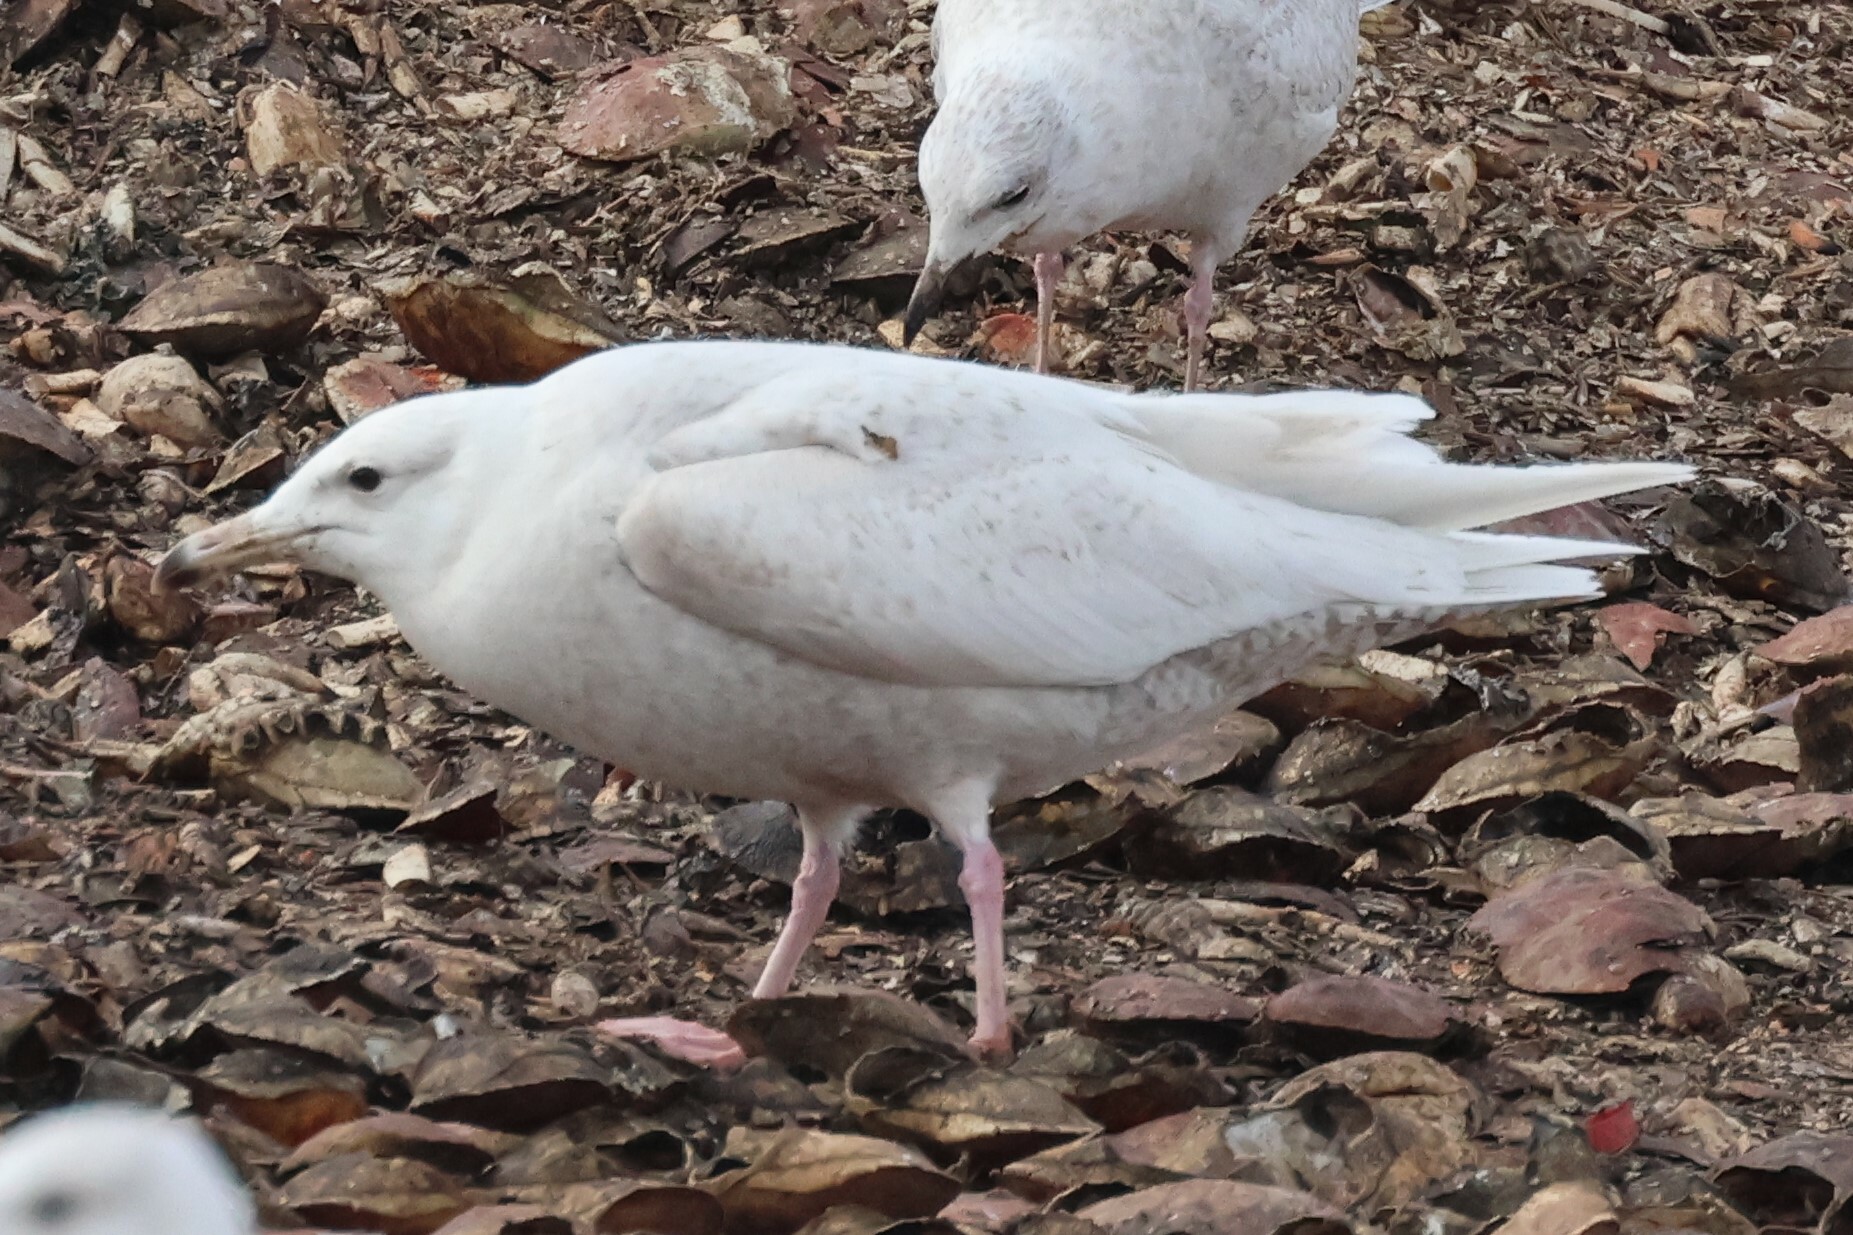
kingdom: Animalia
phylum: Chordata
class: Aves
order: Charadriiformes
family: Laridae
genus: Larus
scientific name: Larus hyperboreus
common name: Glaucous gull
